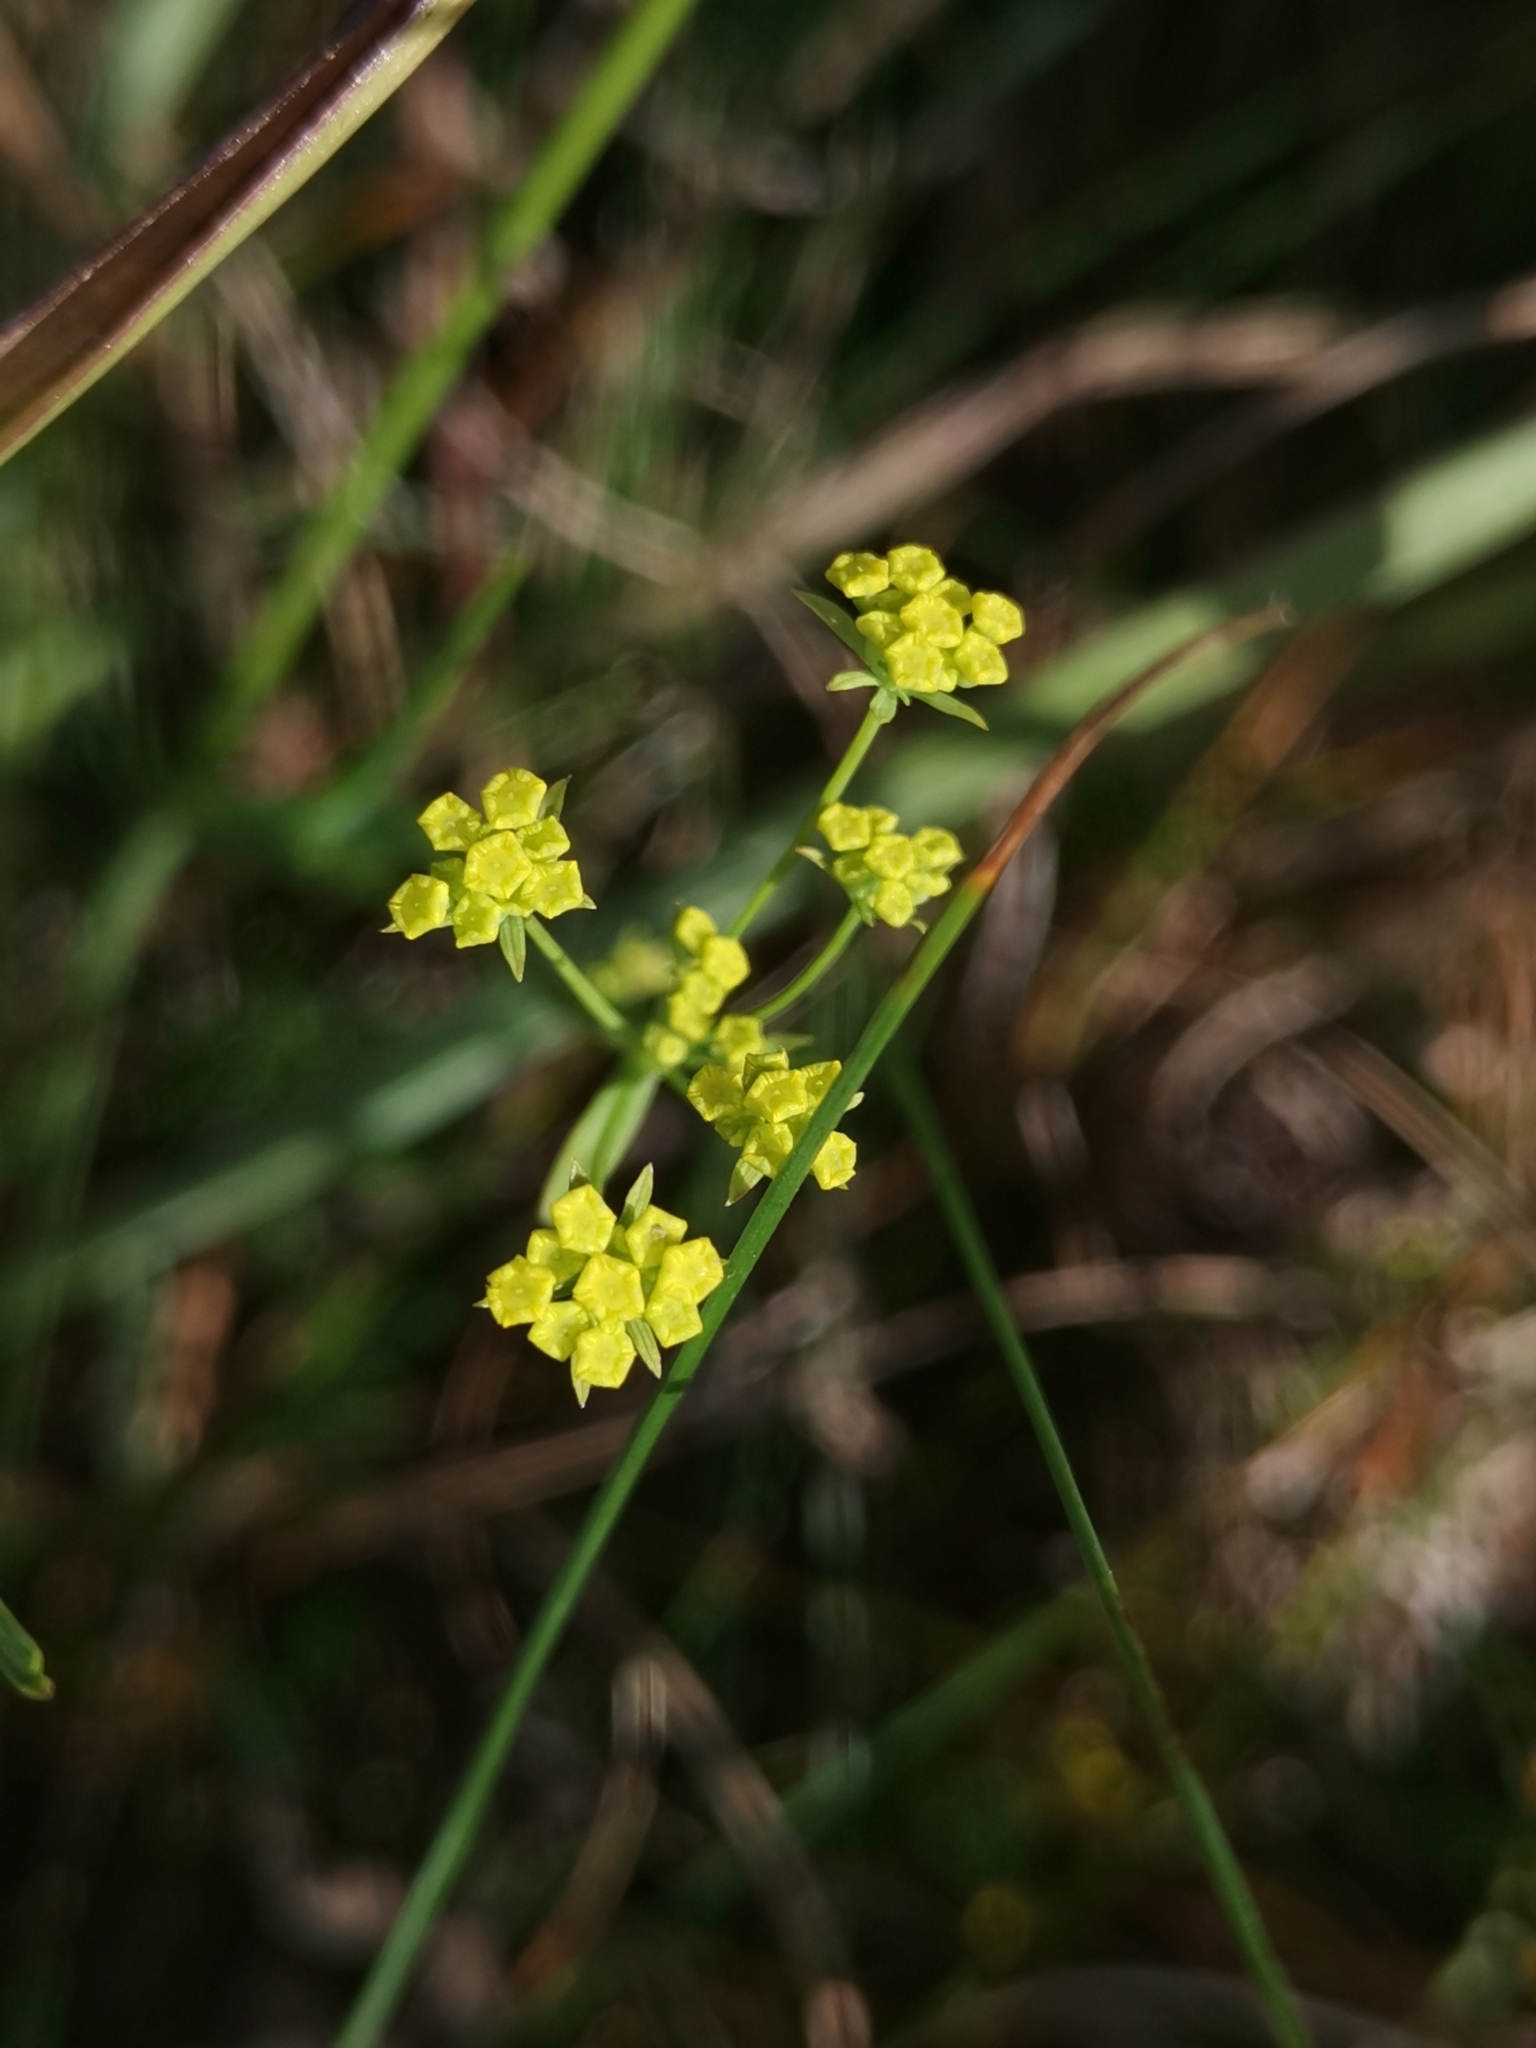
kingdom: Plantae
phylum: Tracheophyta
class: Magnoliopsida
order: Apiales
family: Apiaceae
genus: Bupleurum
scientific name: Bupleurum exaltatum
